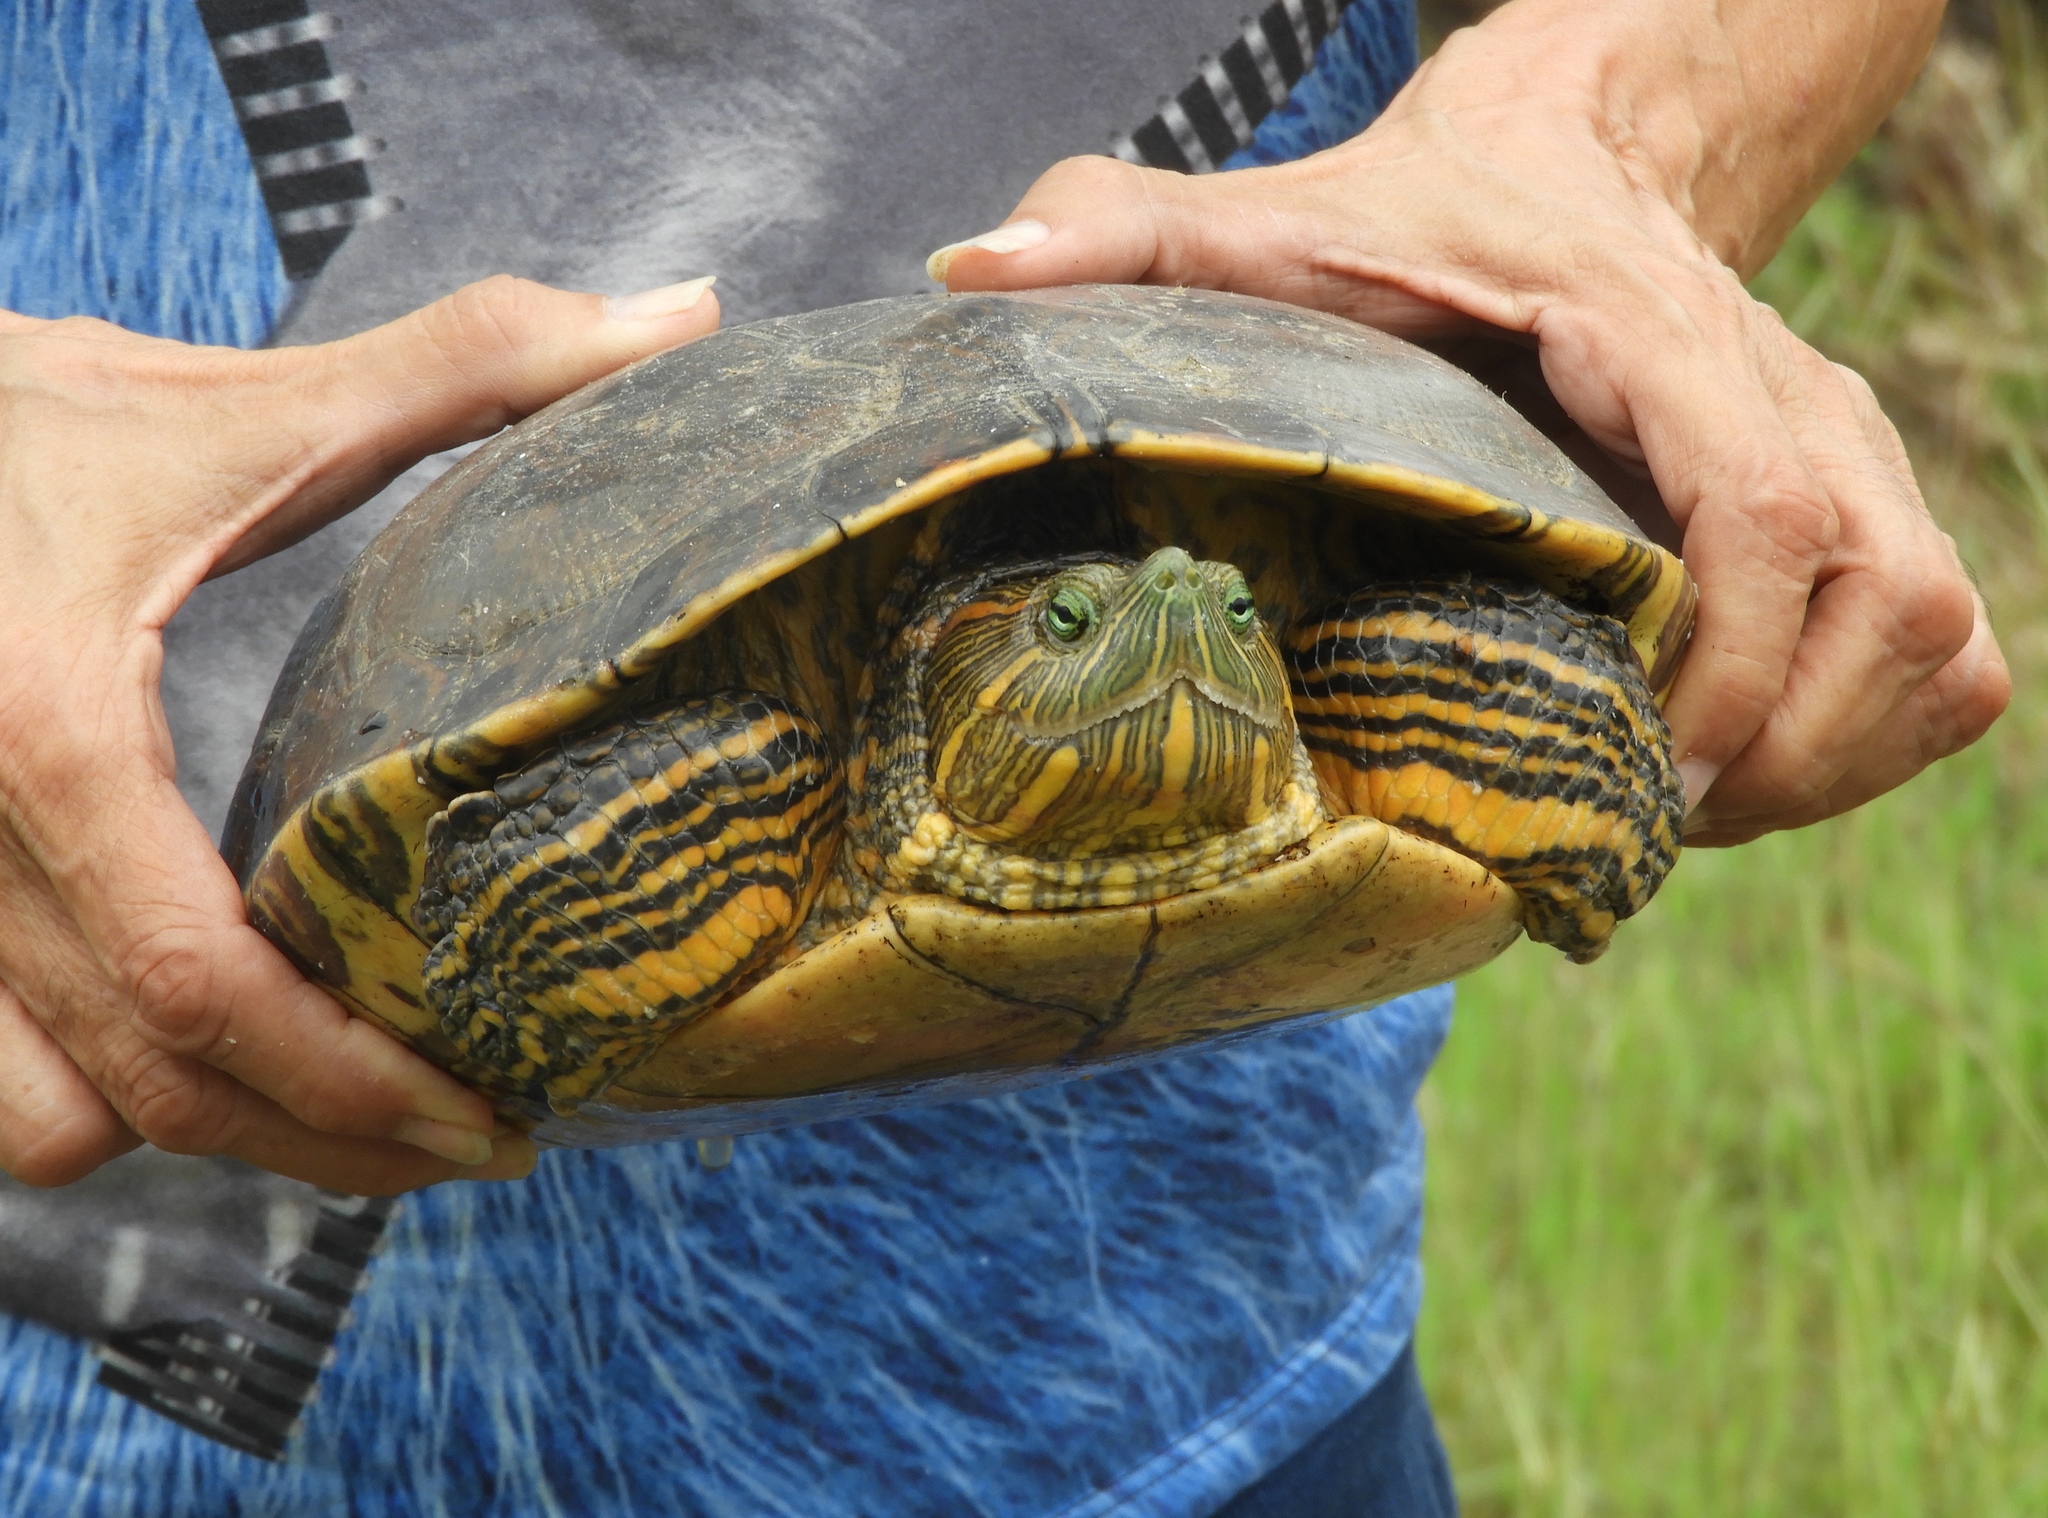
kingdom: Animalia
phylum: Chordata
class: Testudines
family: Emydidae
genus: Trachemys
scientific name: Trachemys ornata
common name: Ornate slider
